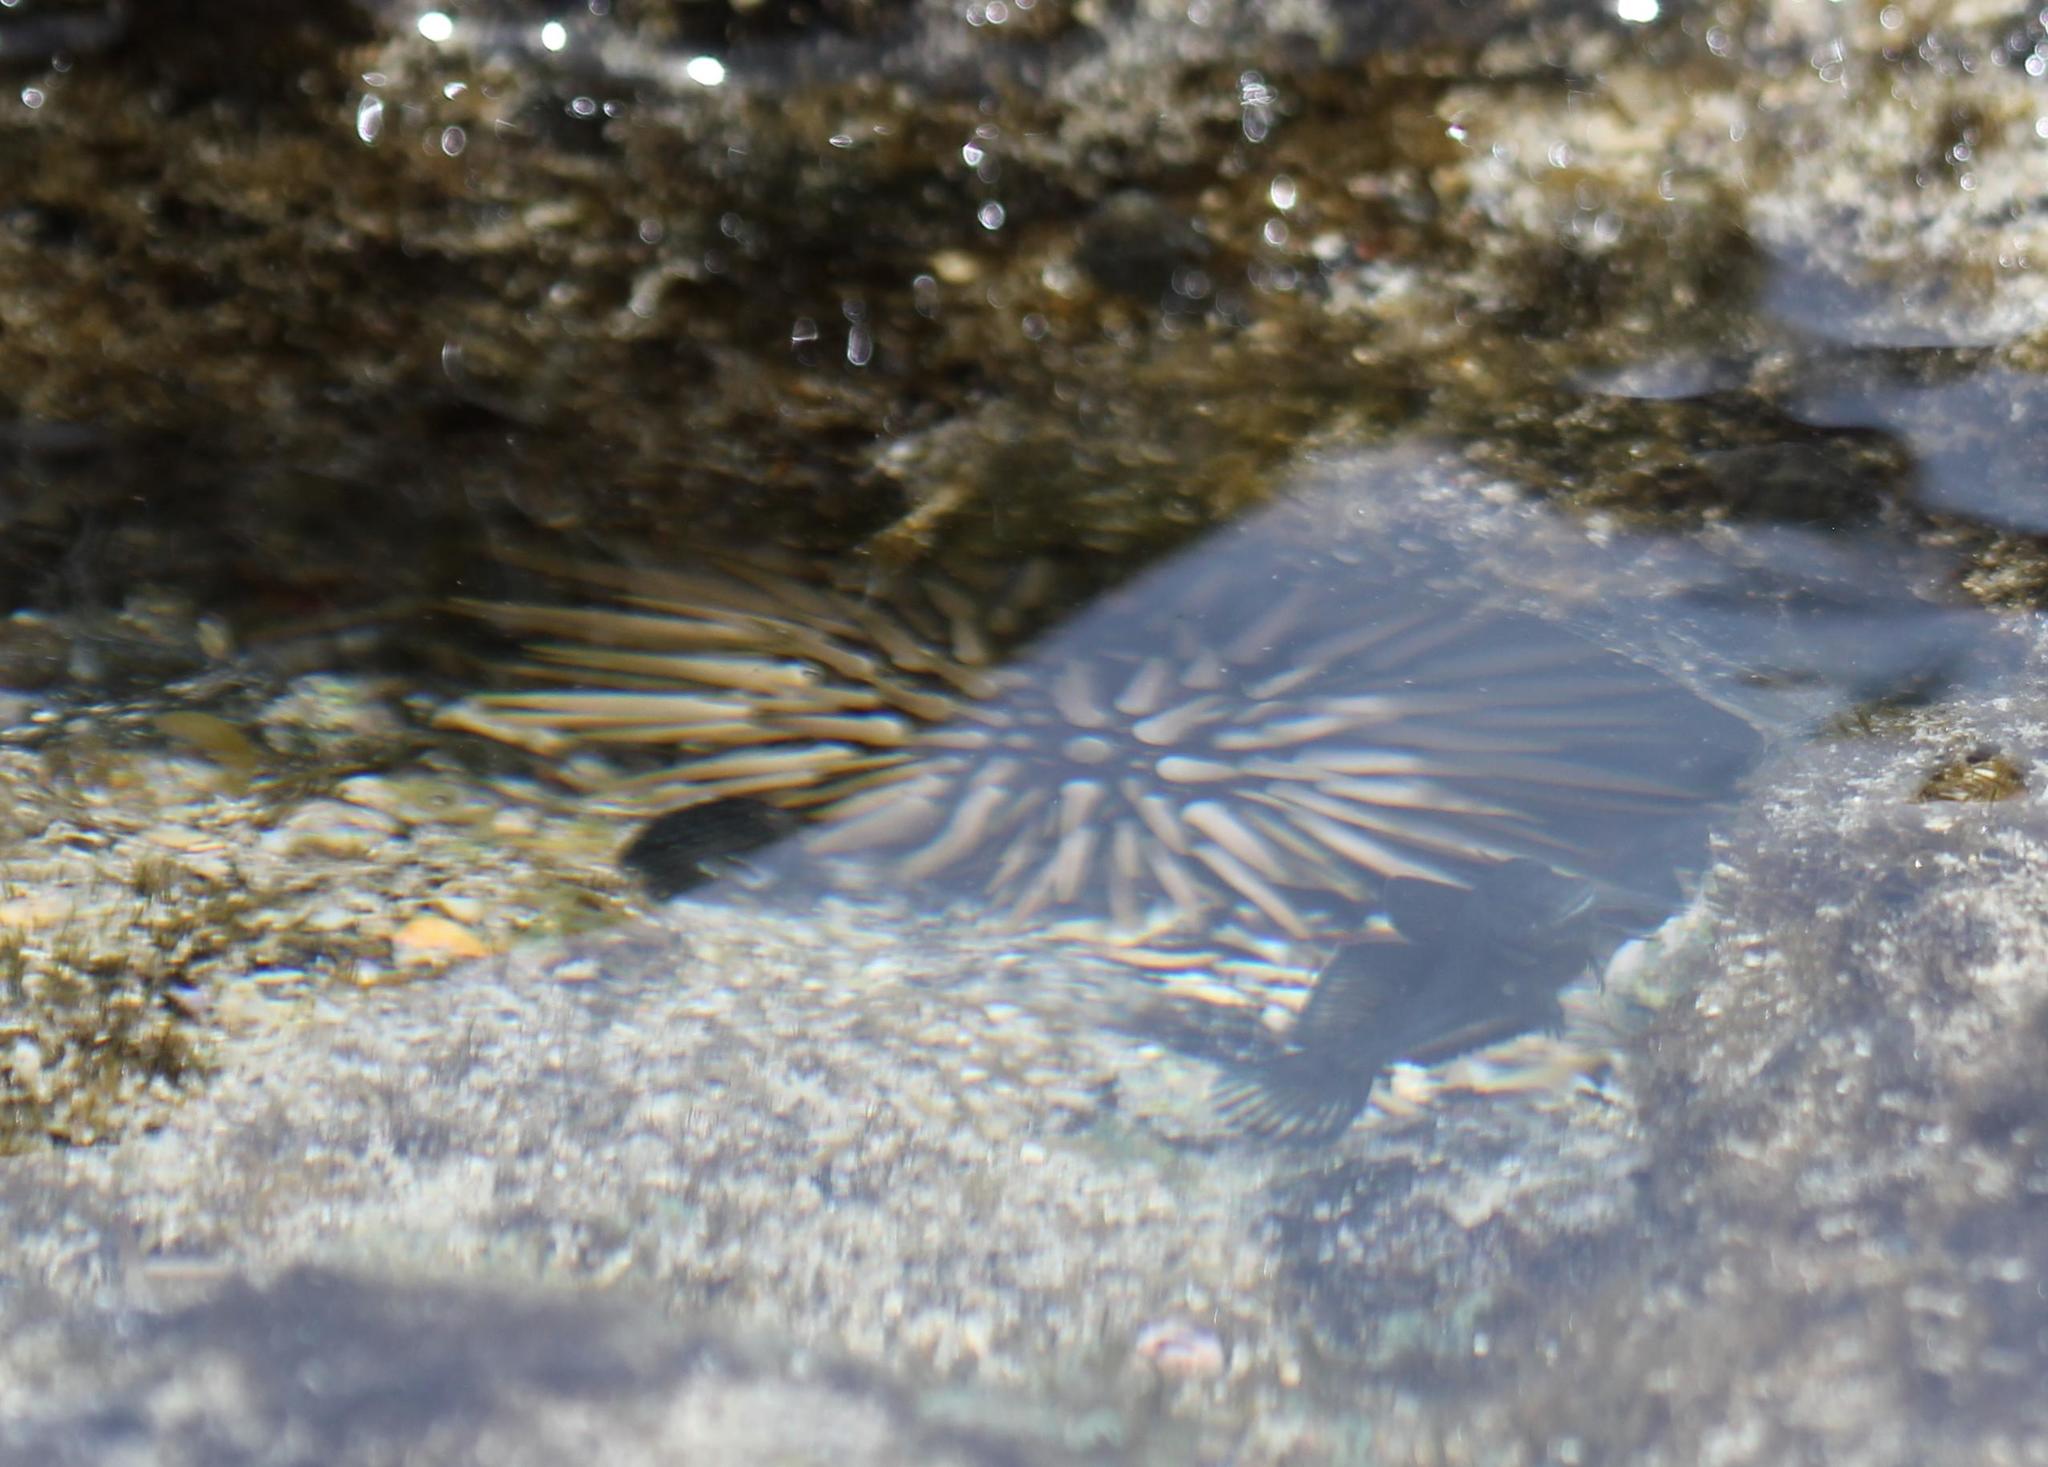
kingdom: Animalia
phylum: Echinodermata
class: Echinoidea
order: Camarodonta
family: Echinometridae
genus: Echinometra
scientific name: Echinometra mathaei
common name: Rock-boring urchin
